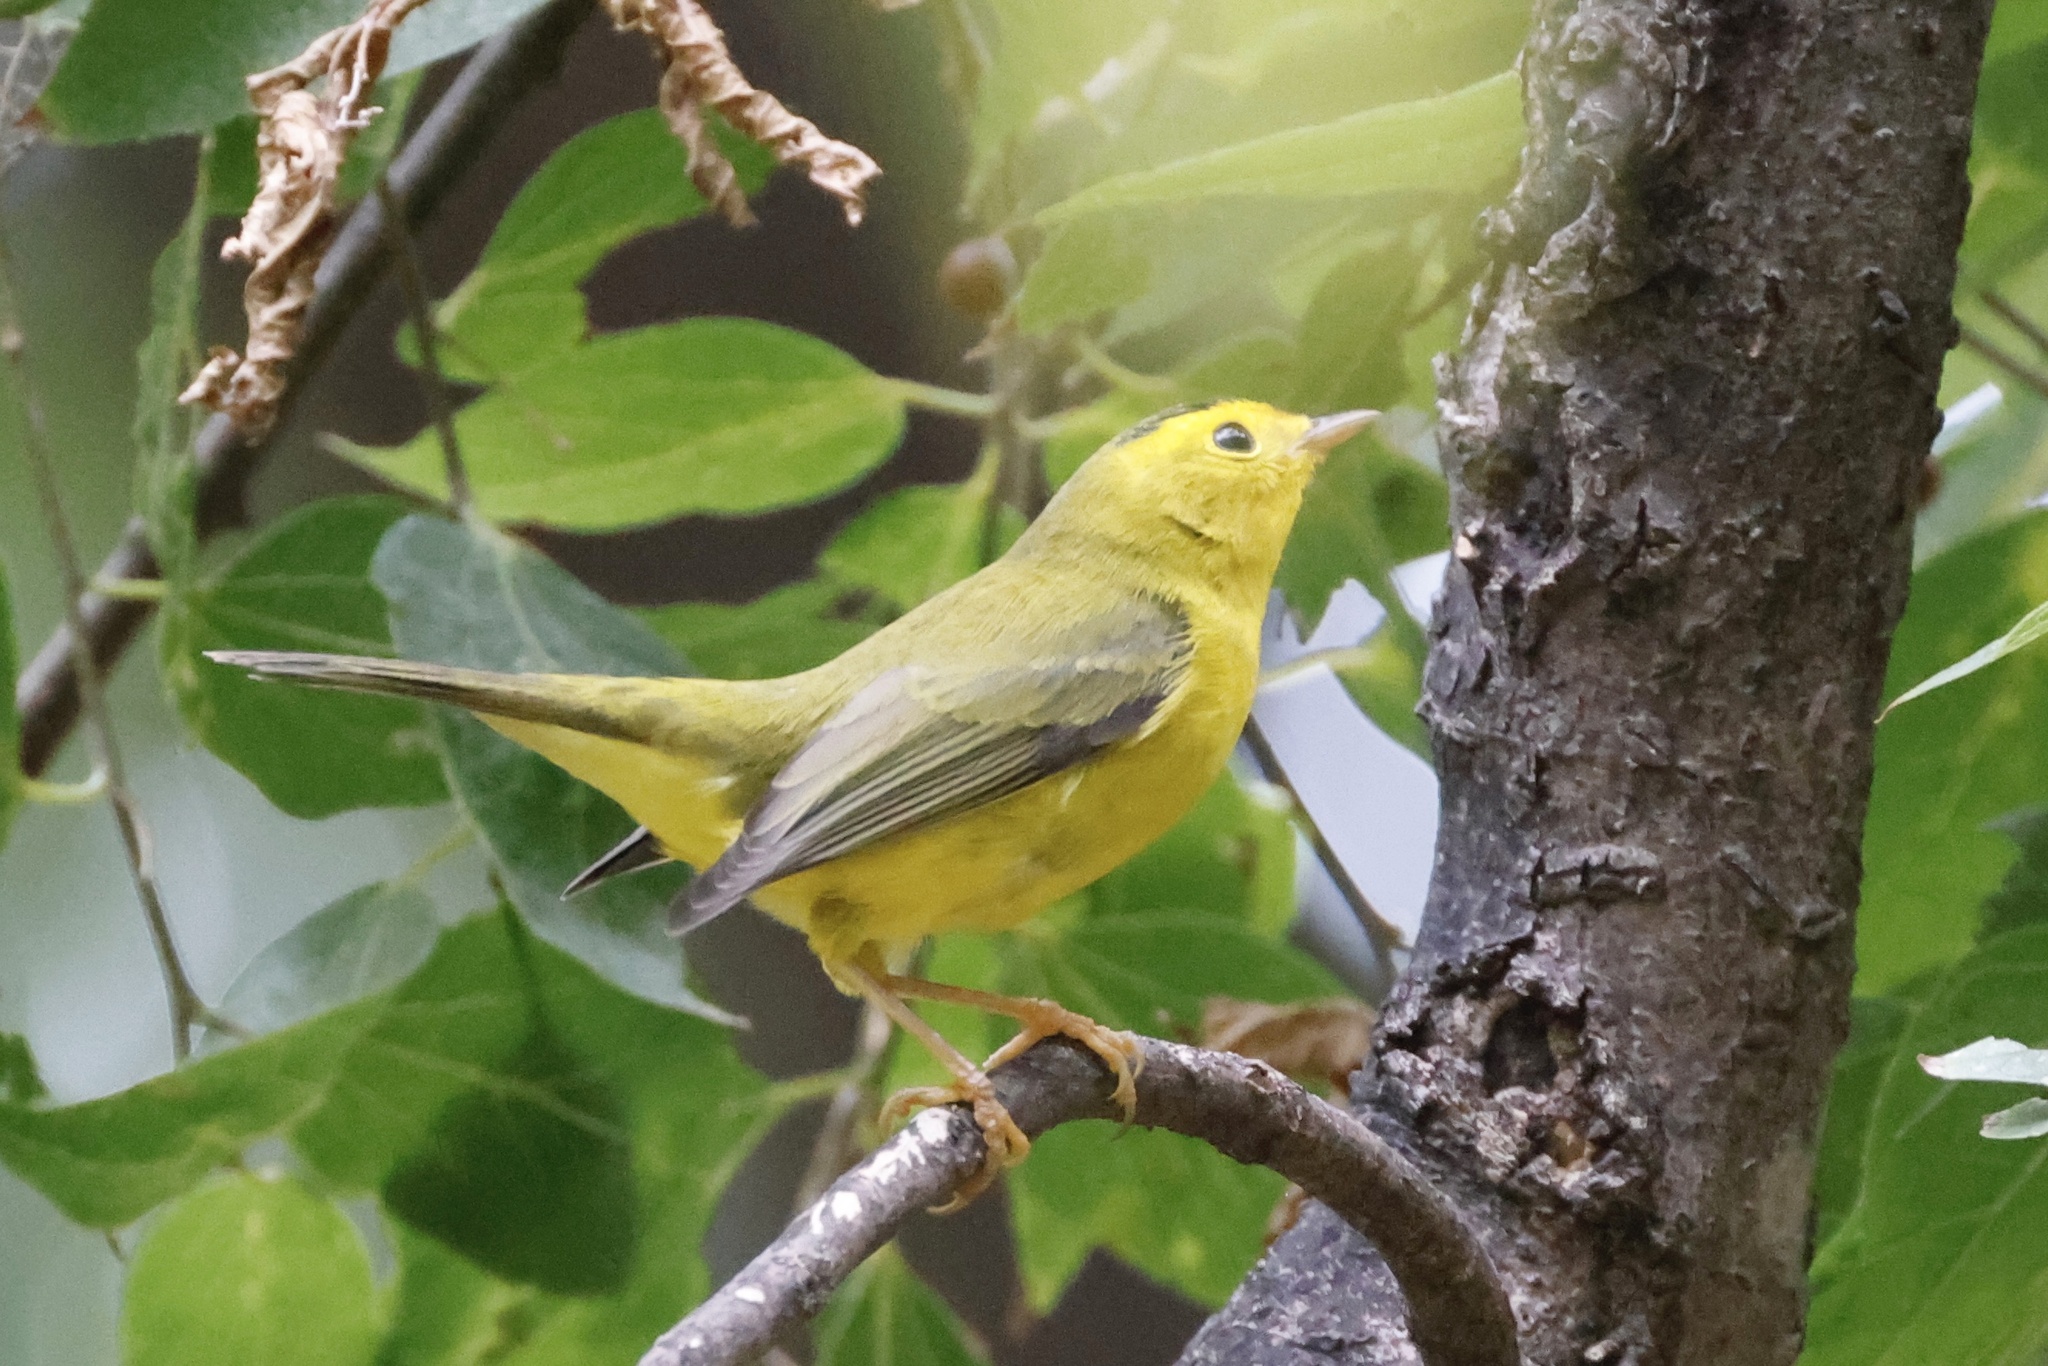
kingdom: Animalia
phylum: Chordata
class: Aves
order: Passeriformes
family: Parulidae
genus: Cardellina
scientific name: Cardellina pusilla
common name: Wilson's warbler
